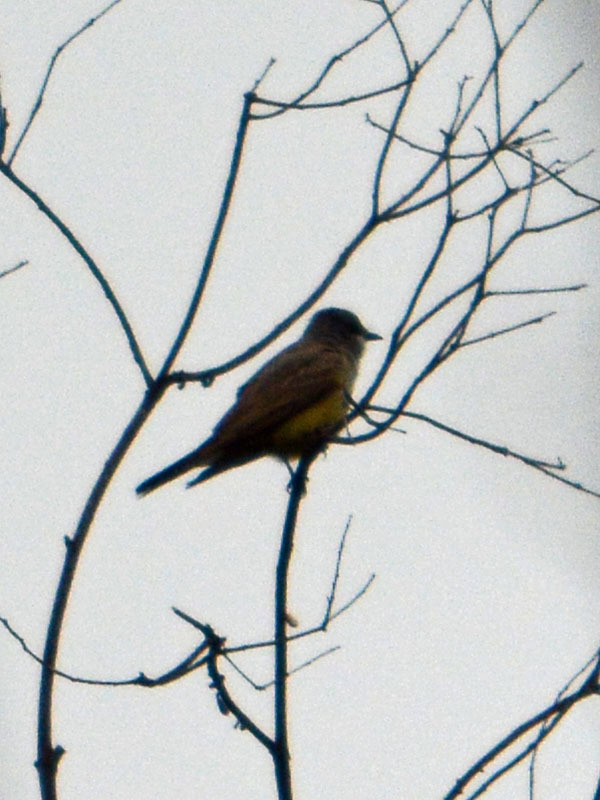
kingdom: Animalia
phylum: Chordata
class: Aves
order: Passeriformes
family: Tyrannidae
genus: Tyrannus
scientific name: Tyrannus vociferans
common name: Cassin's kingbird
